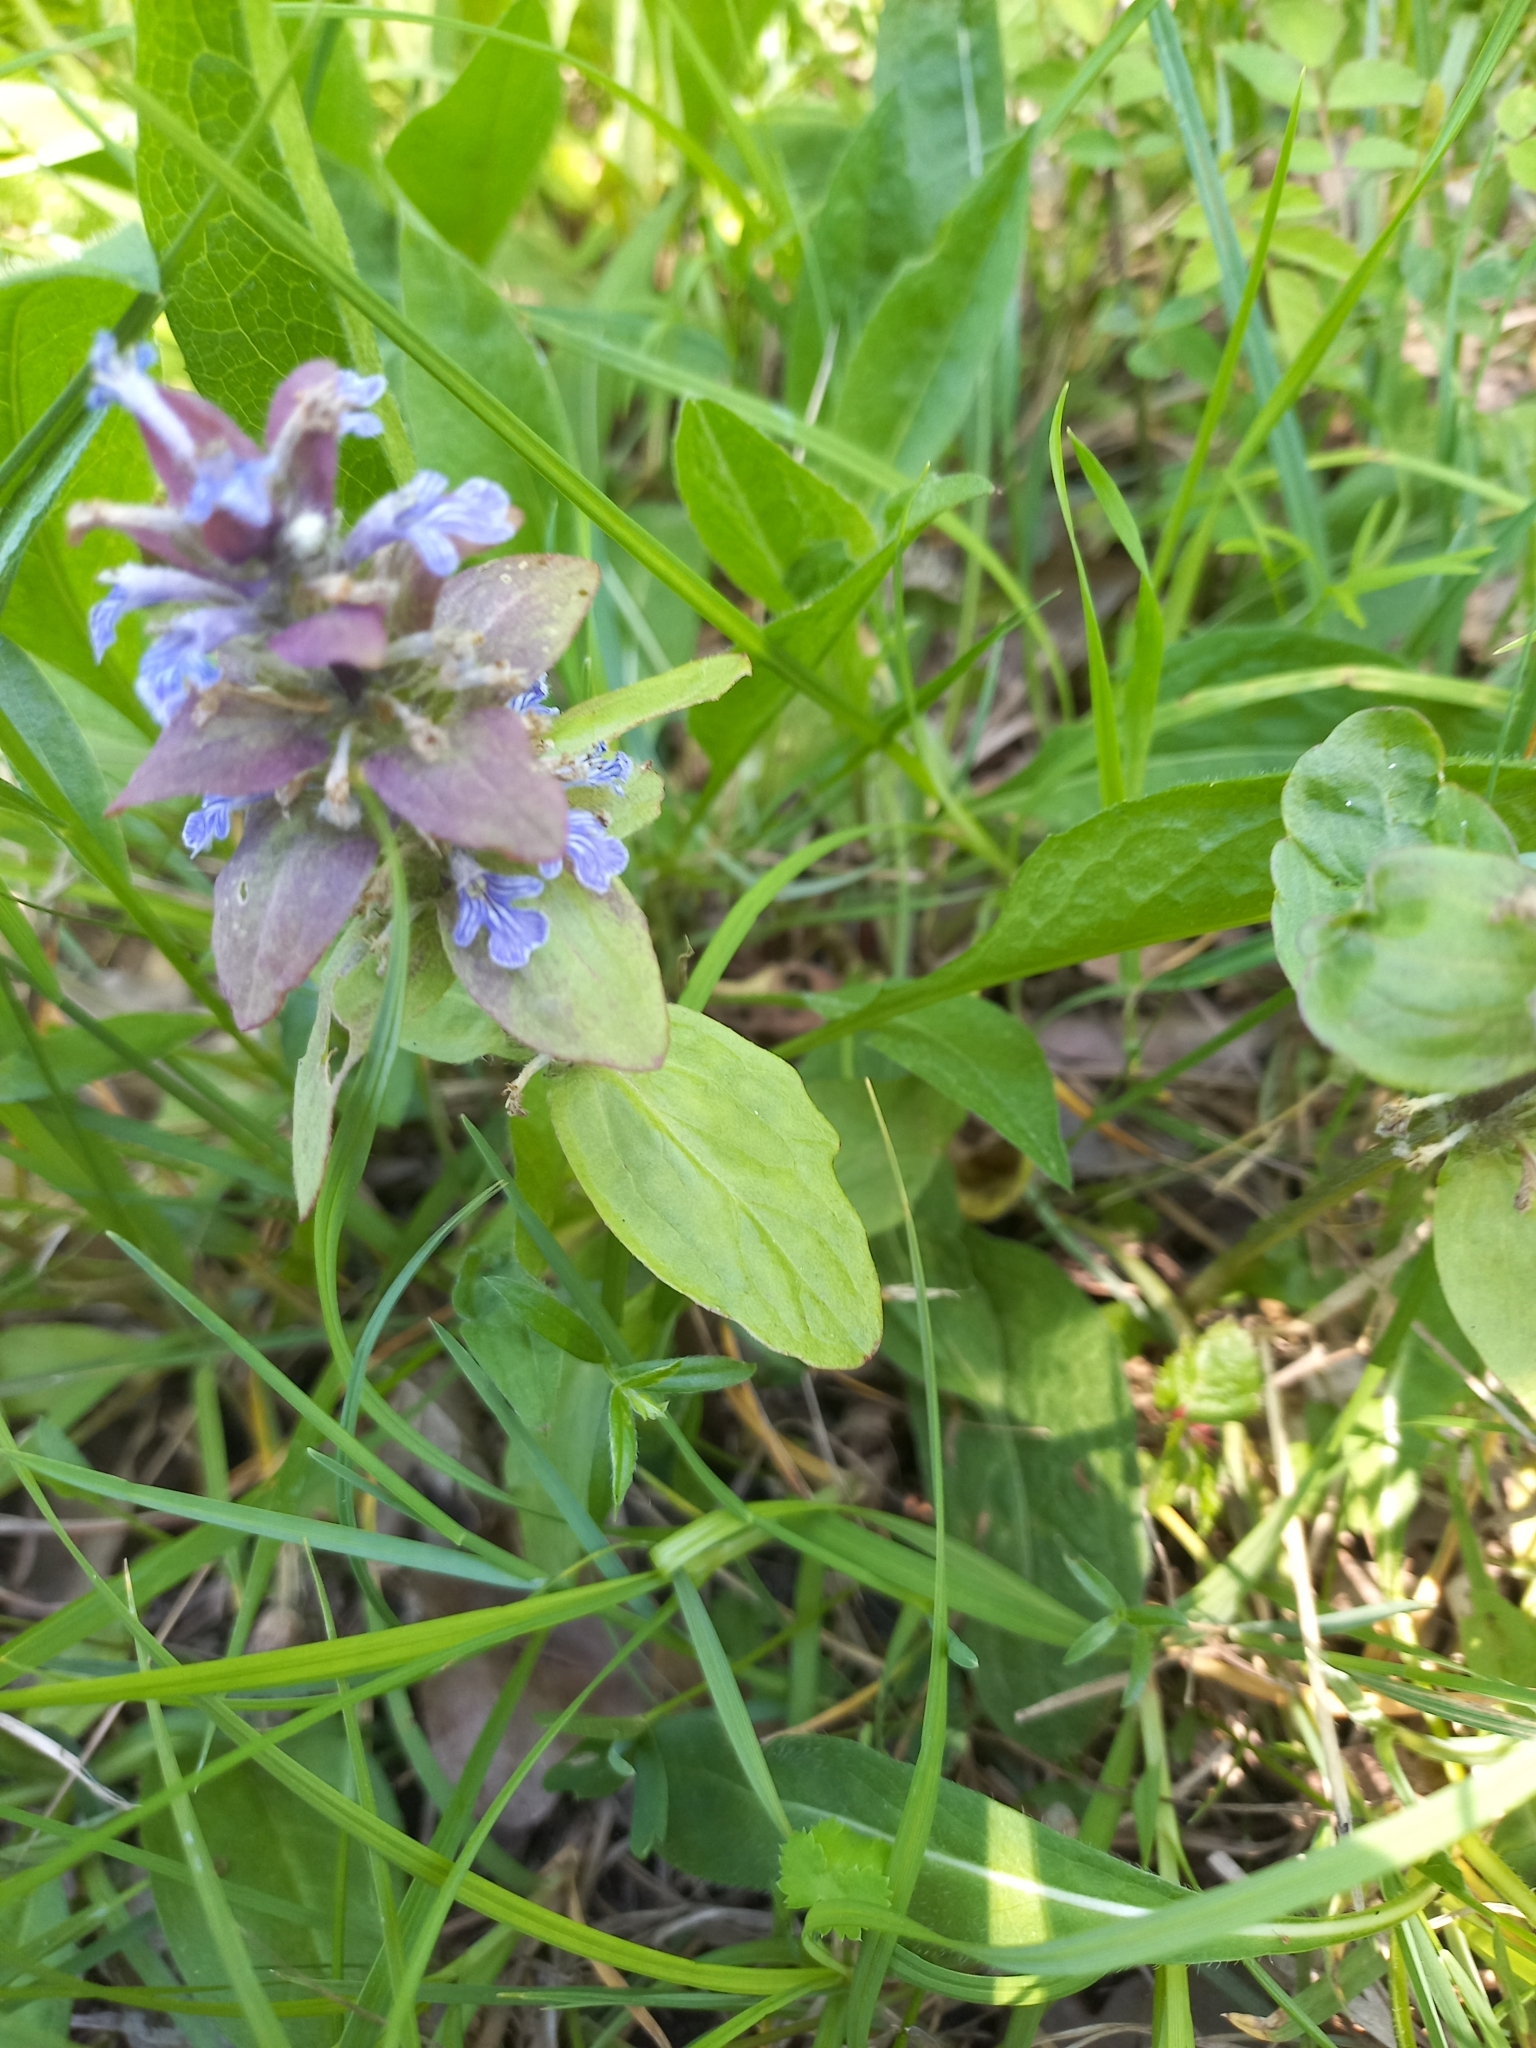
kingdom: Plantae
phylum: Tracheophyta
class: Magnoliopsida
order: Lamiales
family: Lamiaceae
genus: Ajuga
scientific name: Ajuga reptans
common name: Bugle
